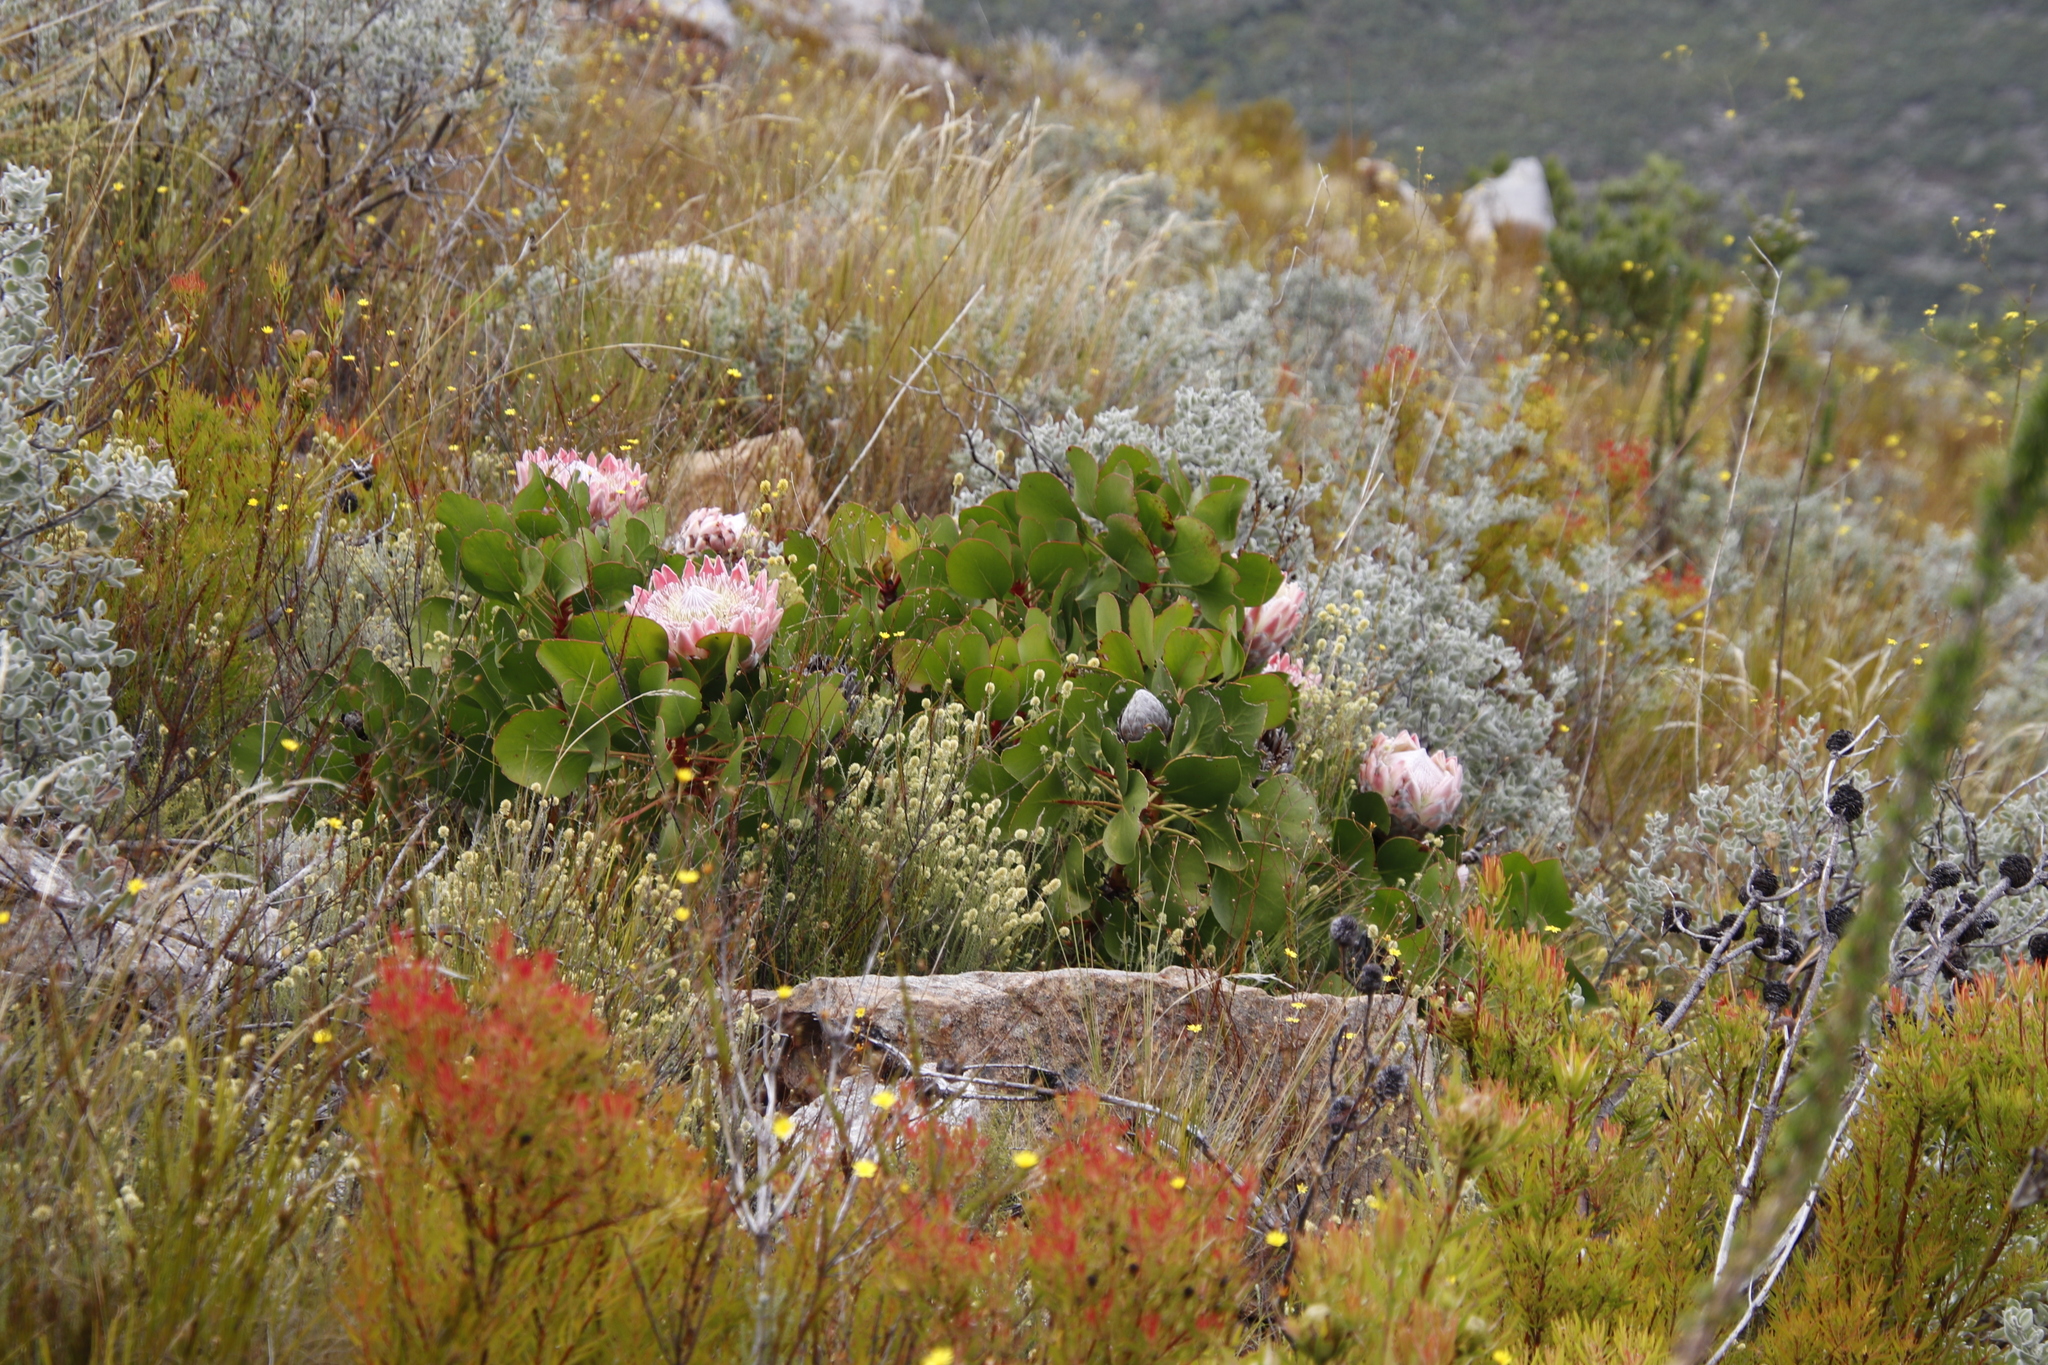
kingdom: Plantae
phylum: Tracheophyta
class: Magnoliopsida
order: Proteales
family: Proteaceae
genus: Protea
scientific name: Protea cynaroides
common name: King protea
